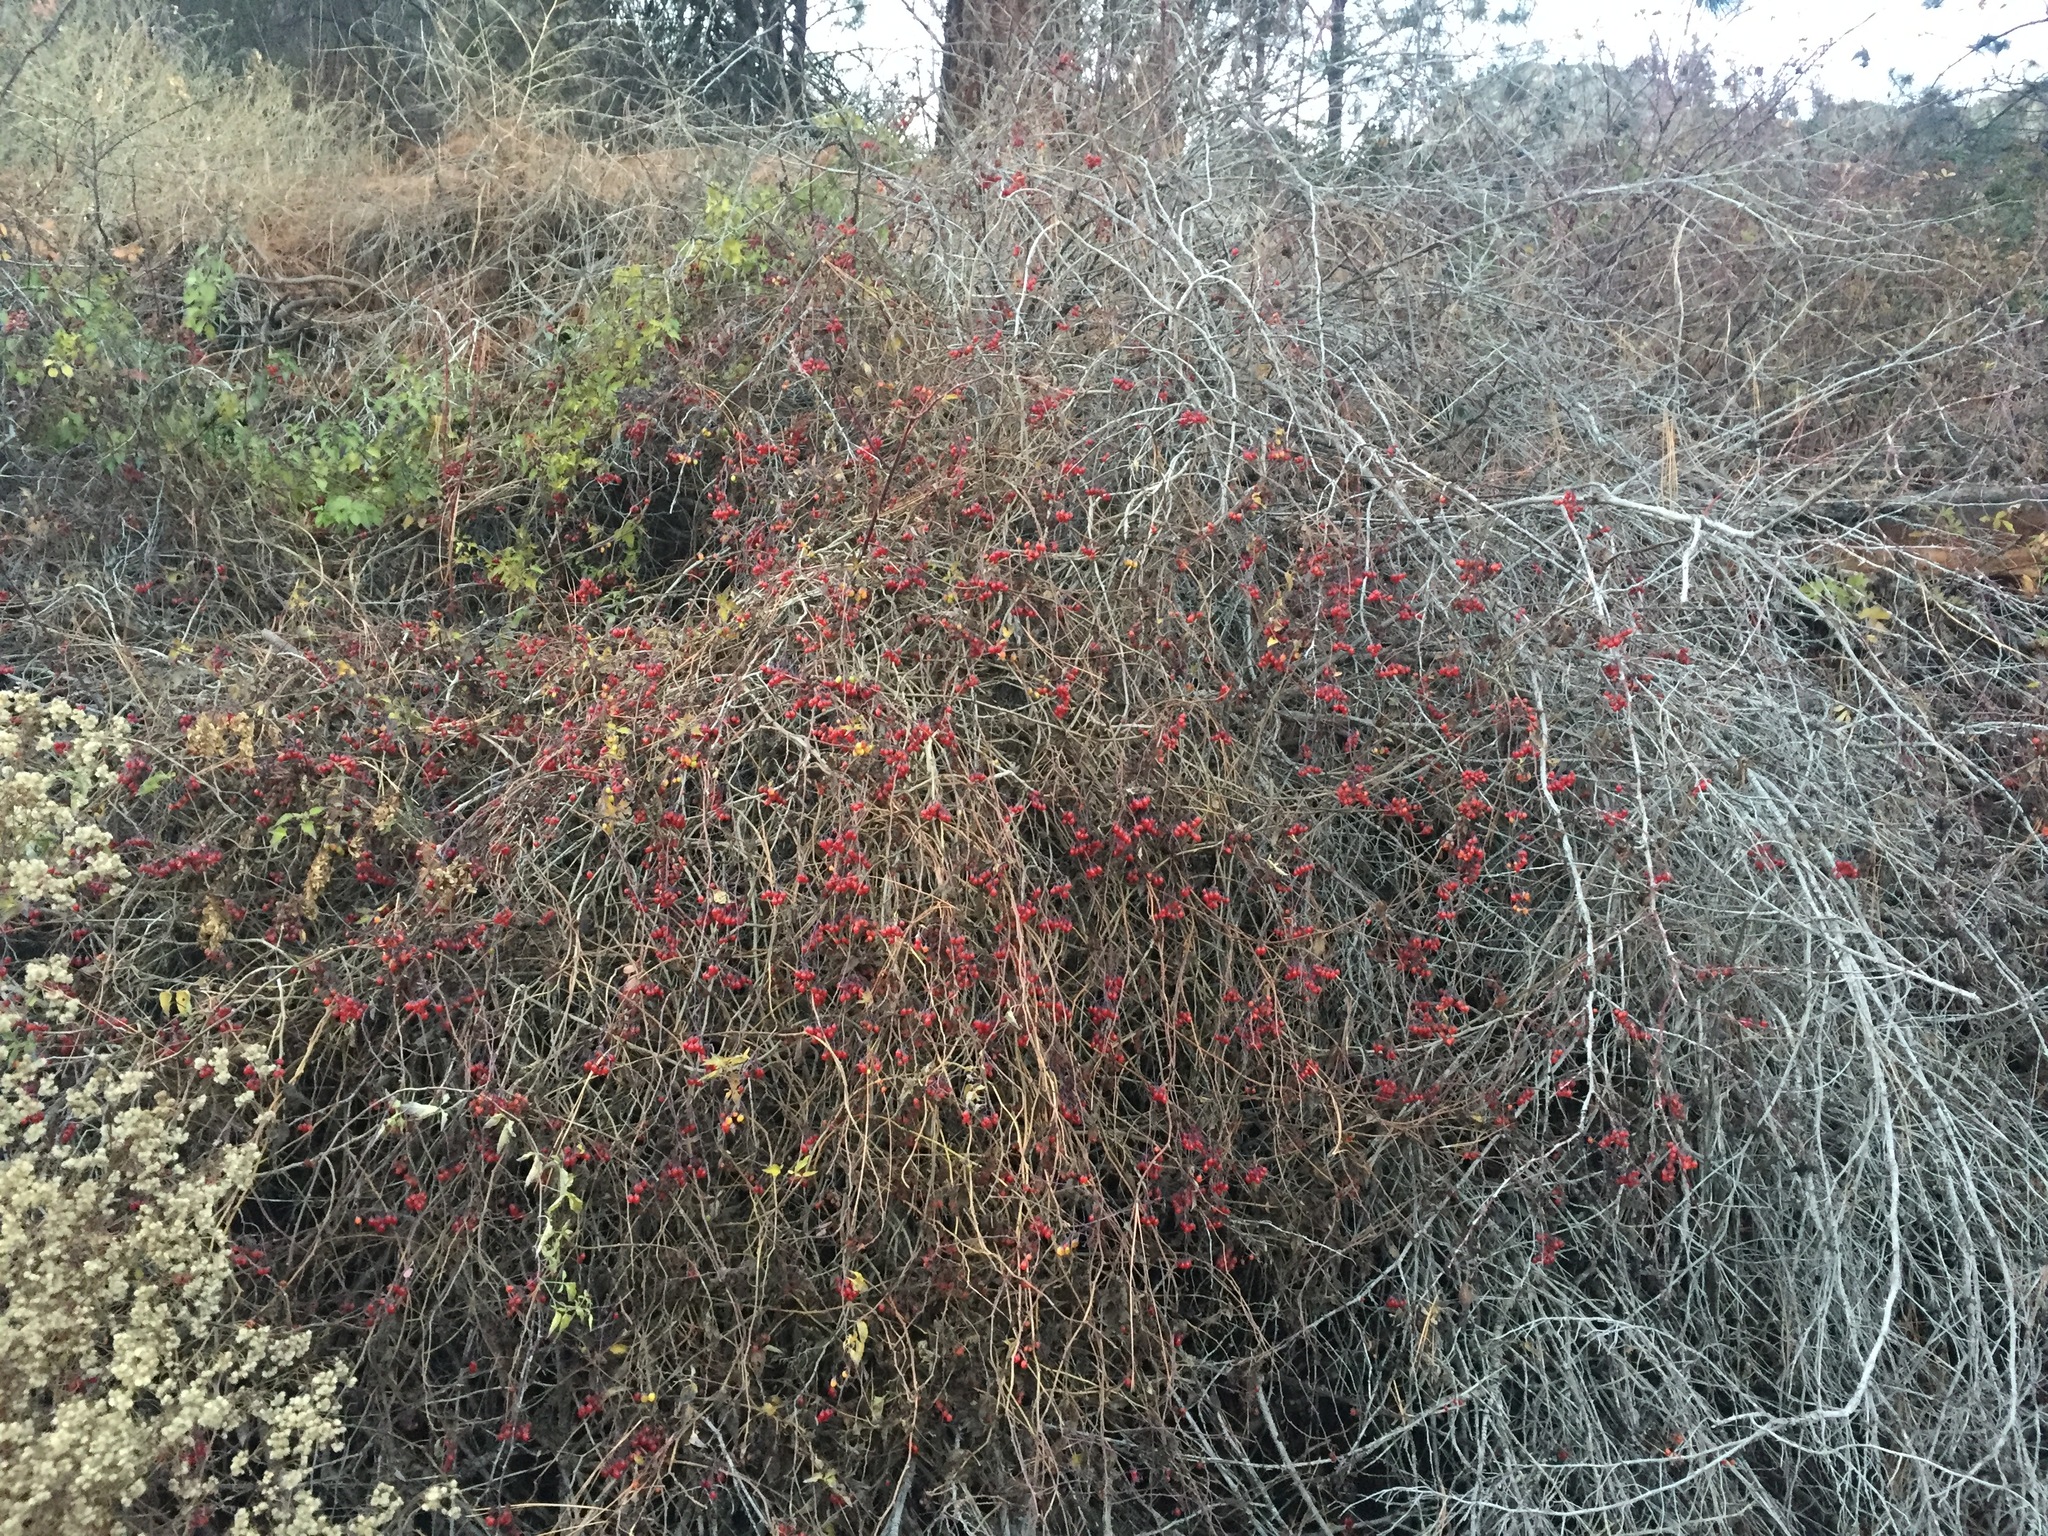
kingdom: Plantae
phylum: Tracheophyta
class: Magnoliopsida
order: Solanales
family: Solanaceae
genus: Solanum
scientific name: Solanum dulcamara
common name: Climbing nightshade
